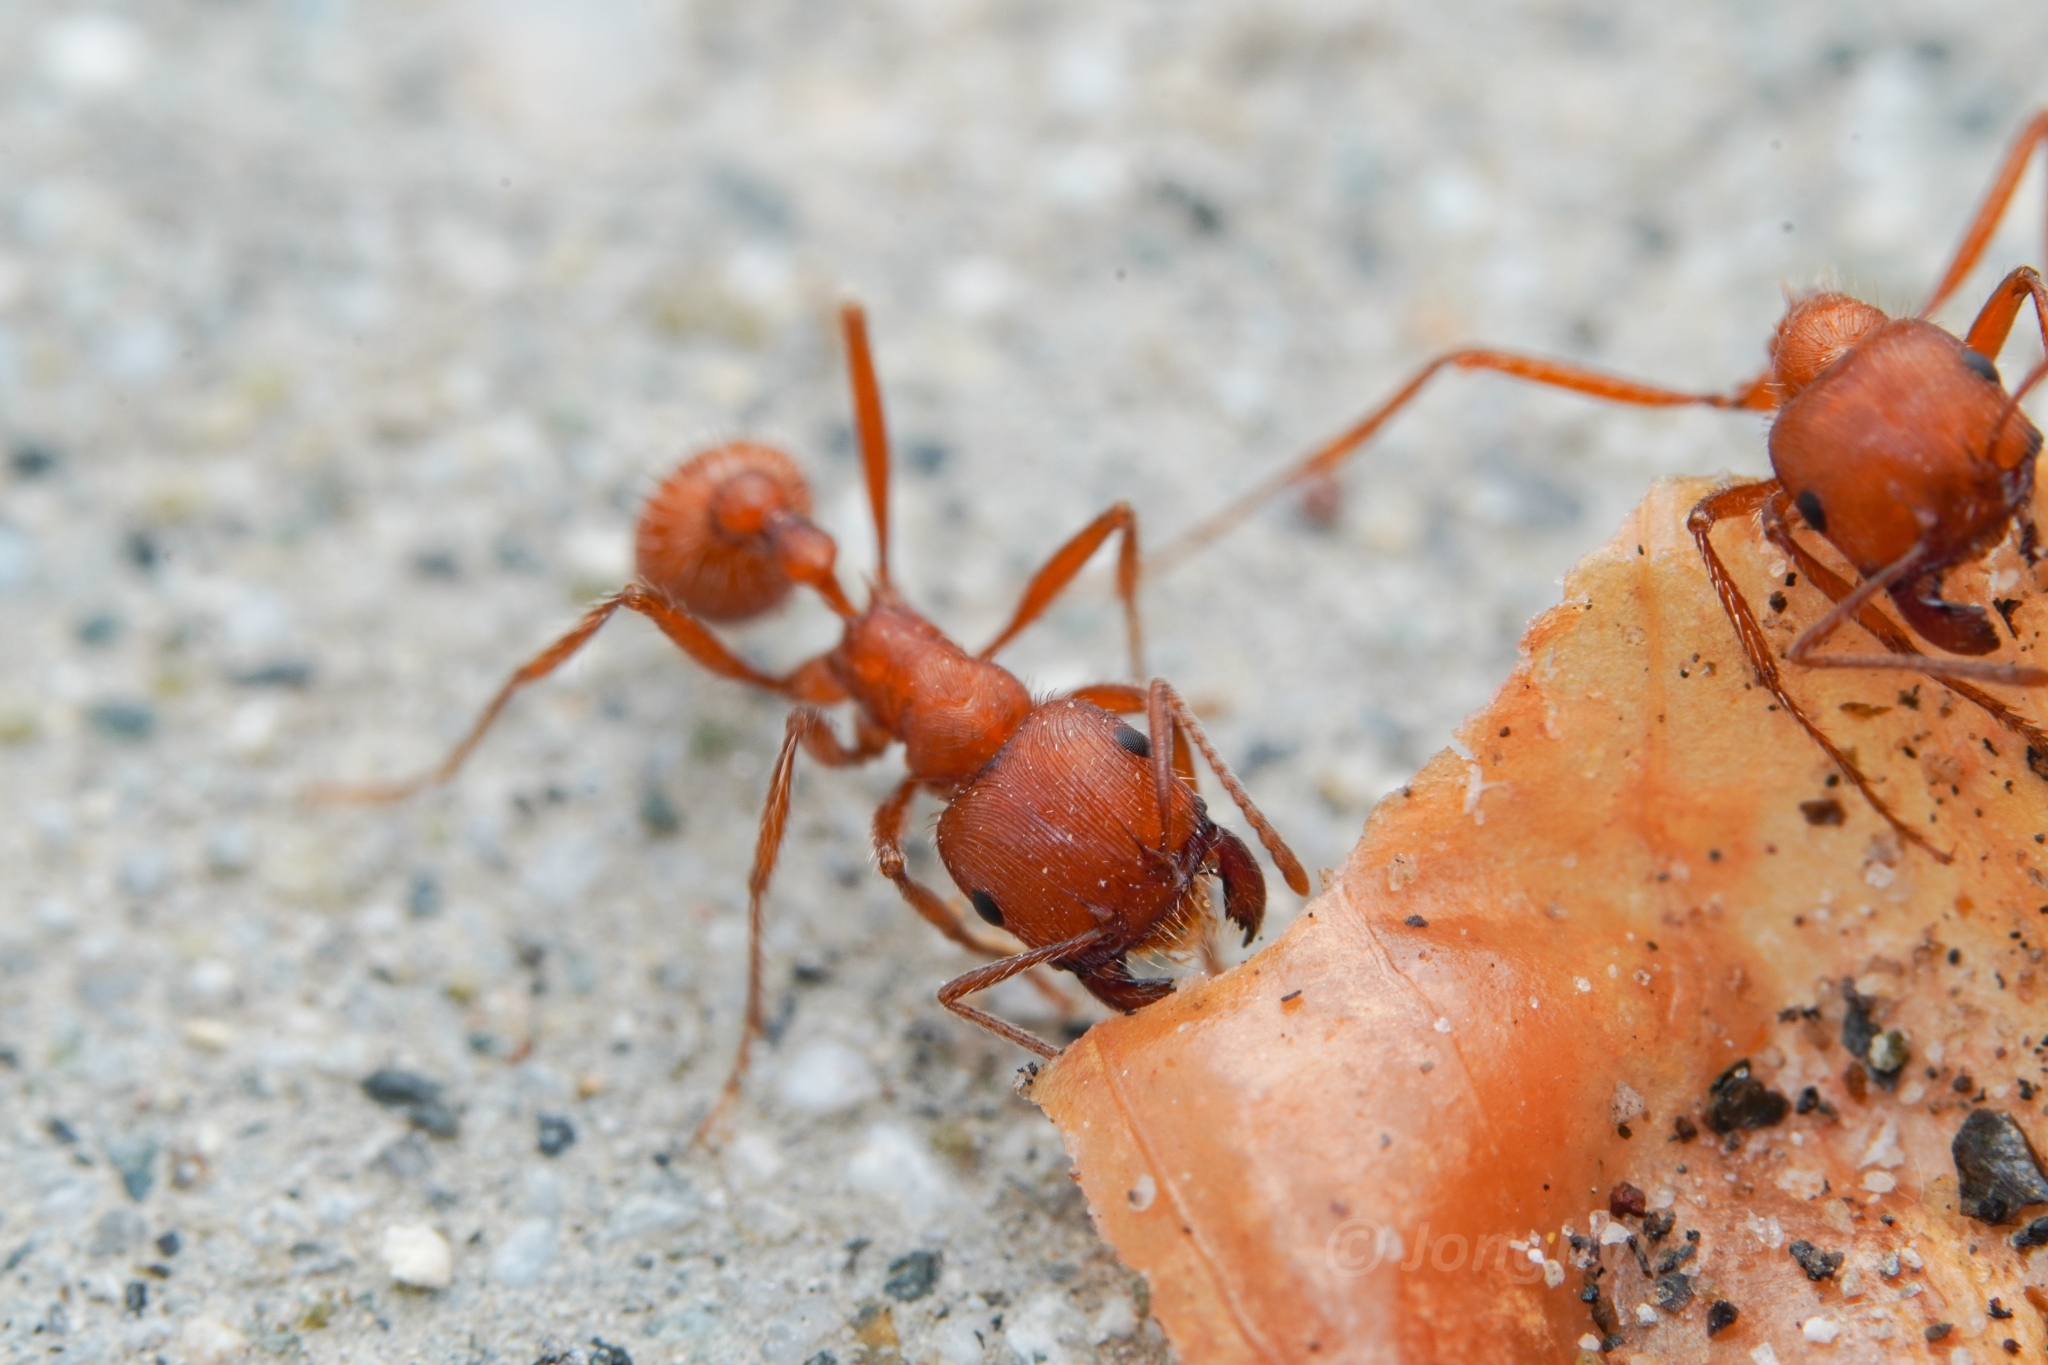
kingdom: Animalia
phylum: Arthropoda
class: Insecta
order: Hymenoptera
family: Formicidae
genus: Pogonomyrmex
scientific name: Pogonomyrmex subnitidus
